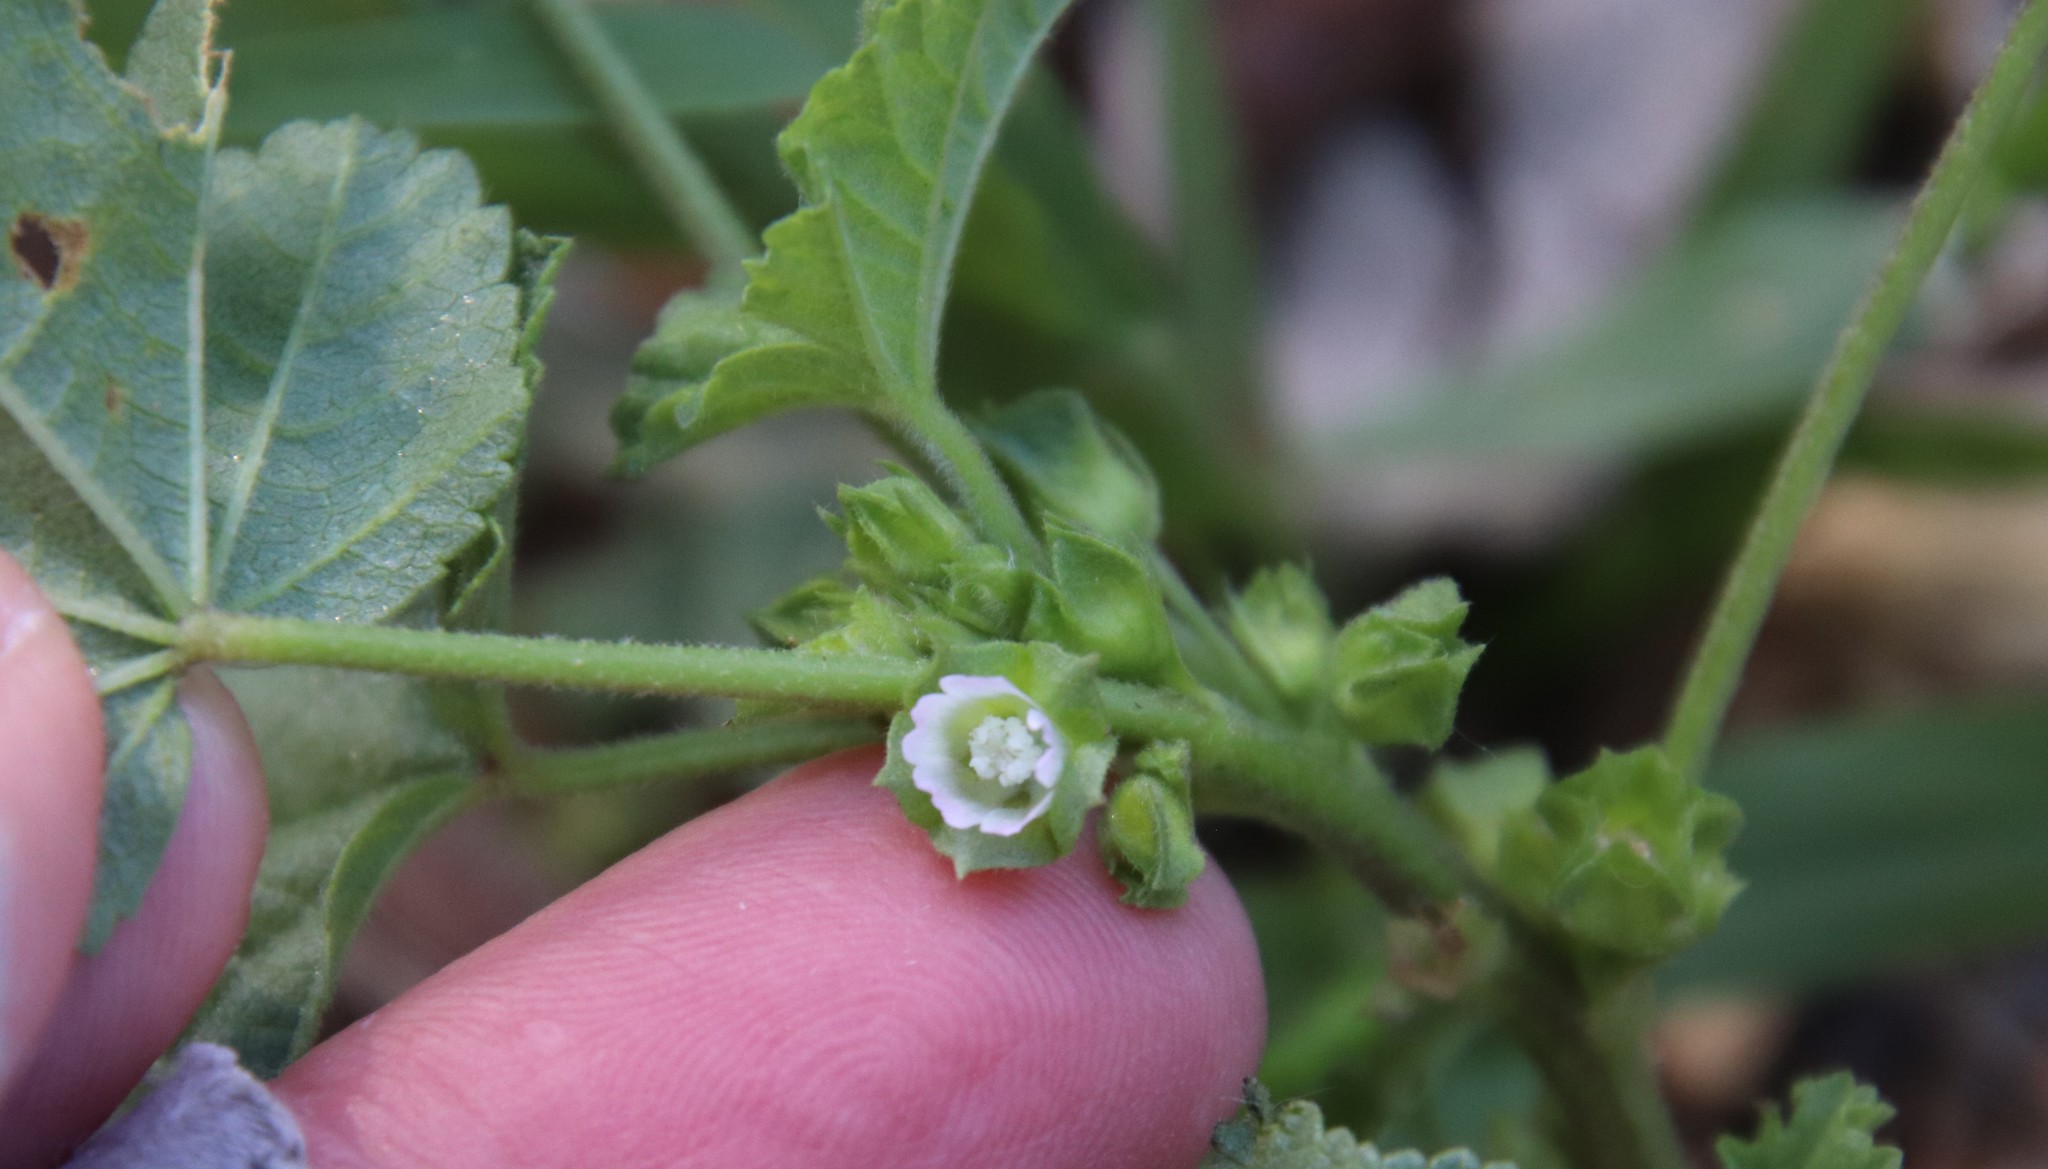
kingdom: Plantae
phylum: Tracheophyta
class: Magnoliopsida
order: Malvales
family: Malvaceae
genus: Malva
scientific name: Malva parviflora
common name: Least mallow
